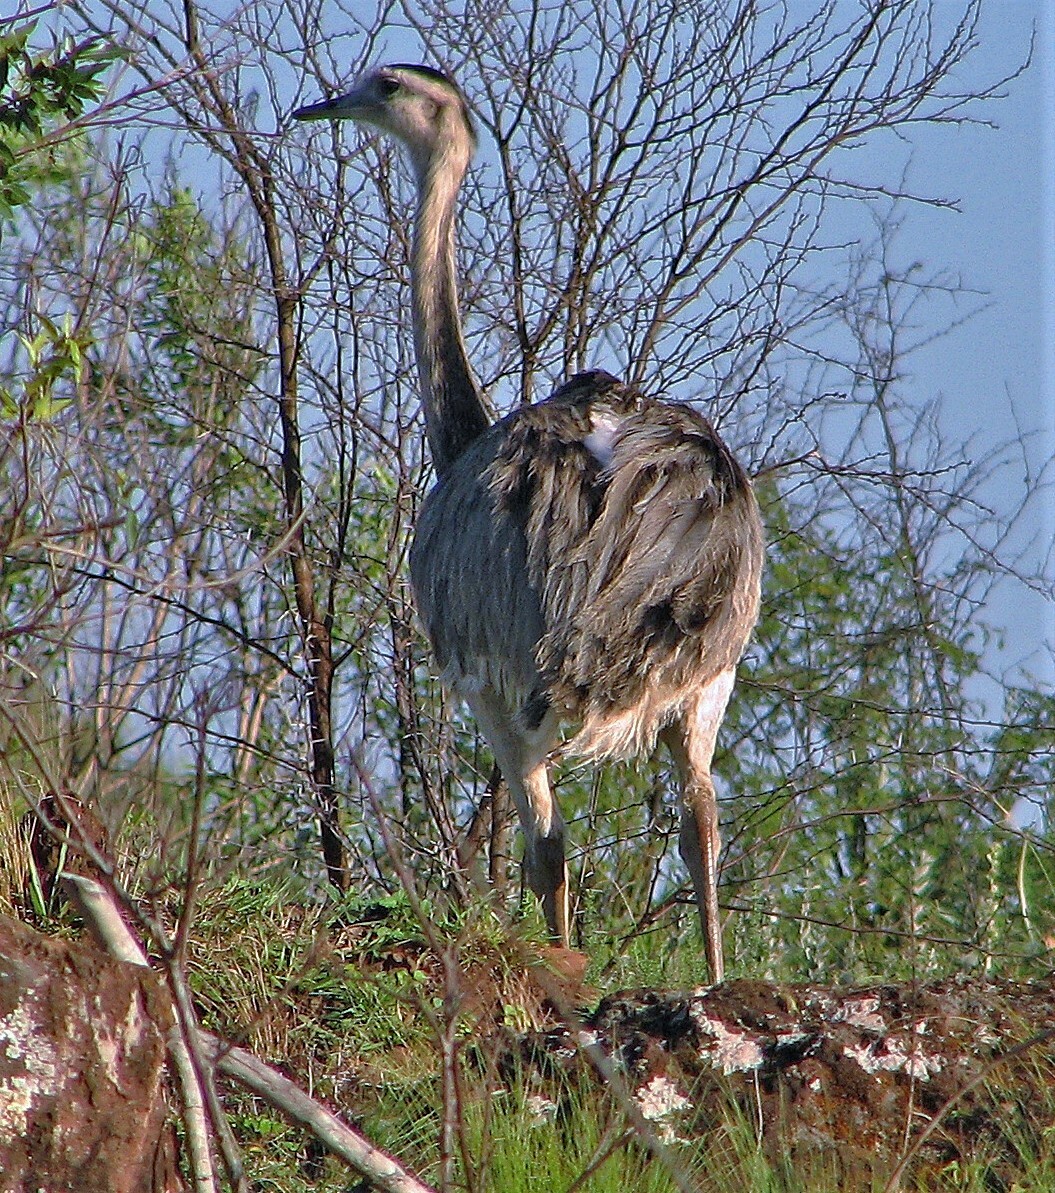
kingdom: Animalia
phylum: Chordata
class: Aves
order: Rheiformes
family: Rheidae
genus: Rhea
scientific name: Rhea americana
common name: Greater rhea
